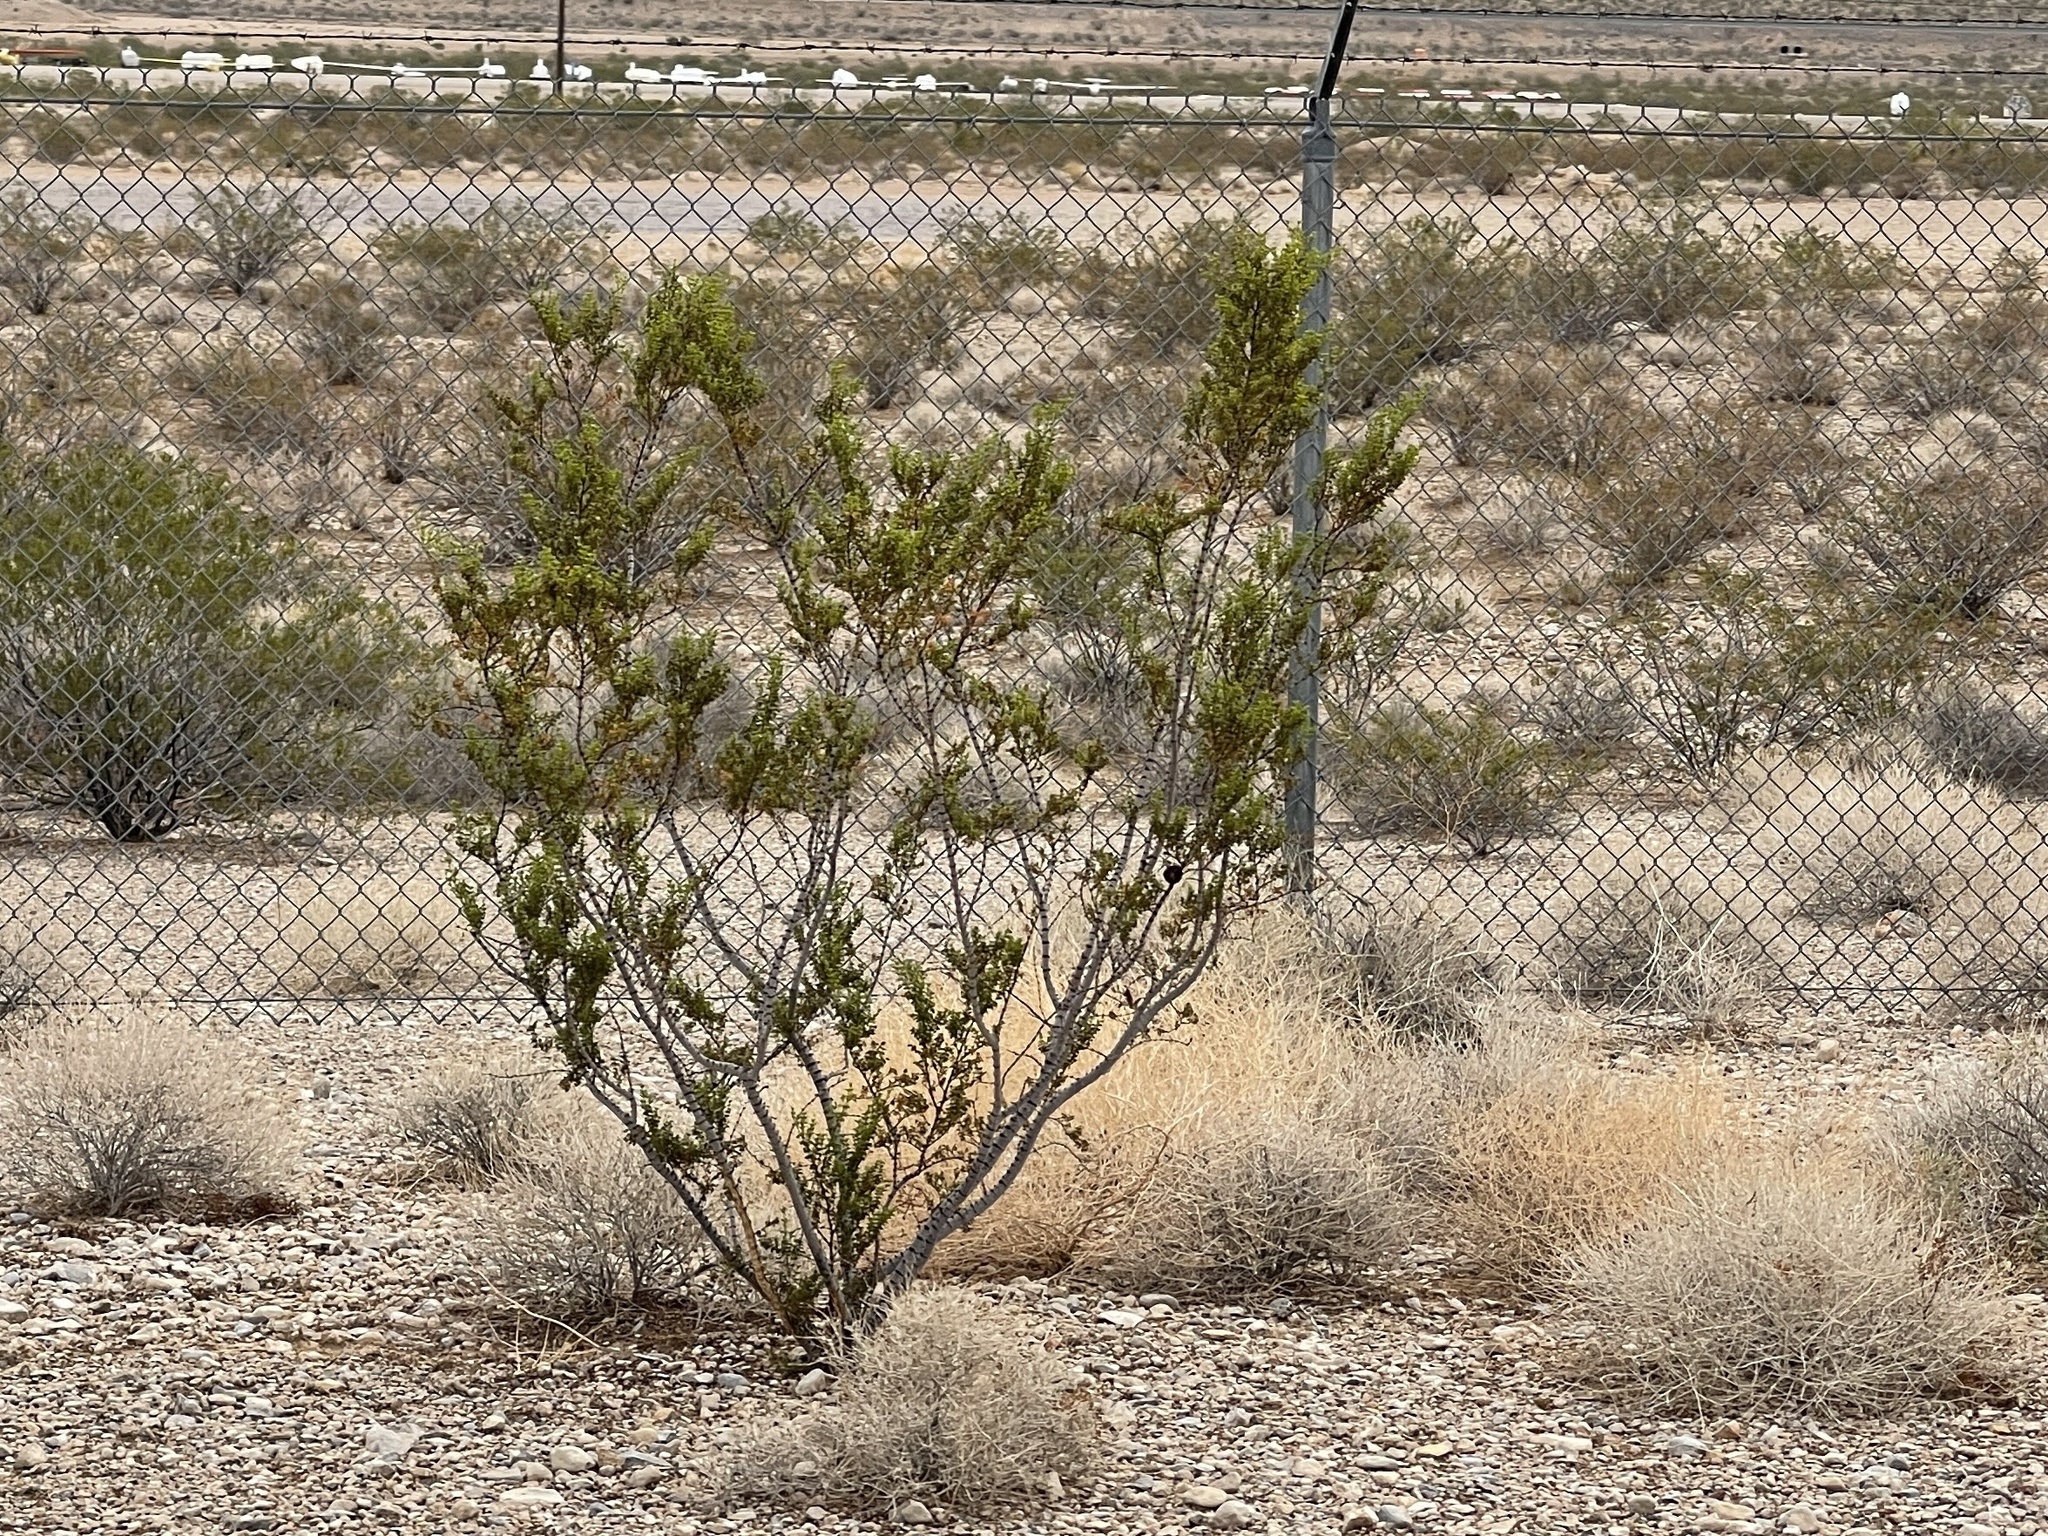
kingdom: Plantae
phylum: Tracheophyta
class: Magnoliopsida
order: Zygophyllales
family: Zygophyllaceae
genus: Larrea
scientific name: Larrea tridentata
